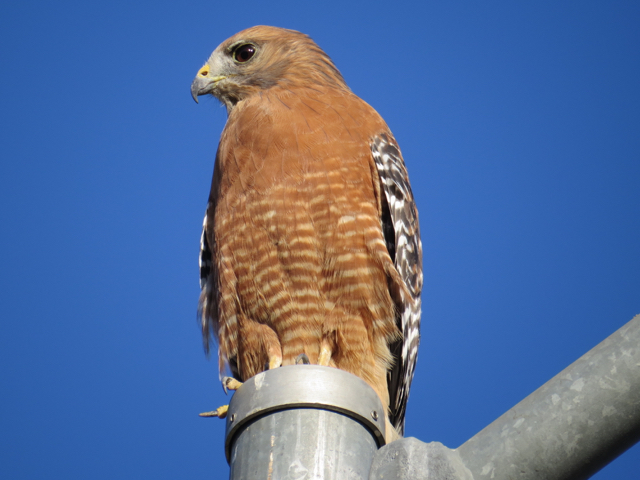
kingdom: Animalia
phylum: Chordata
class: Aves
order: Accipitriformes
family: Accipitridae
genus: Buteo
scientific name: Buteo lineatus
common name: Red-shouldered hawk
